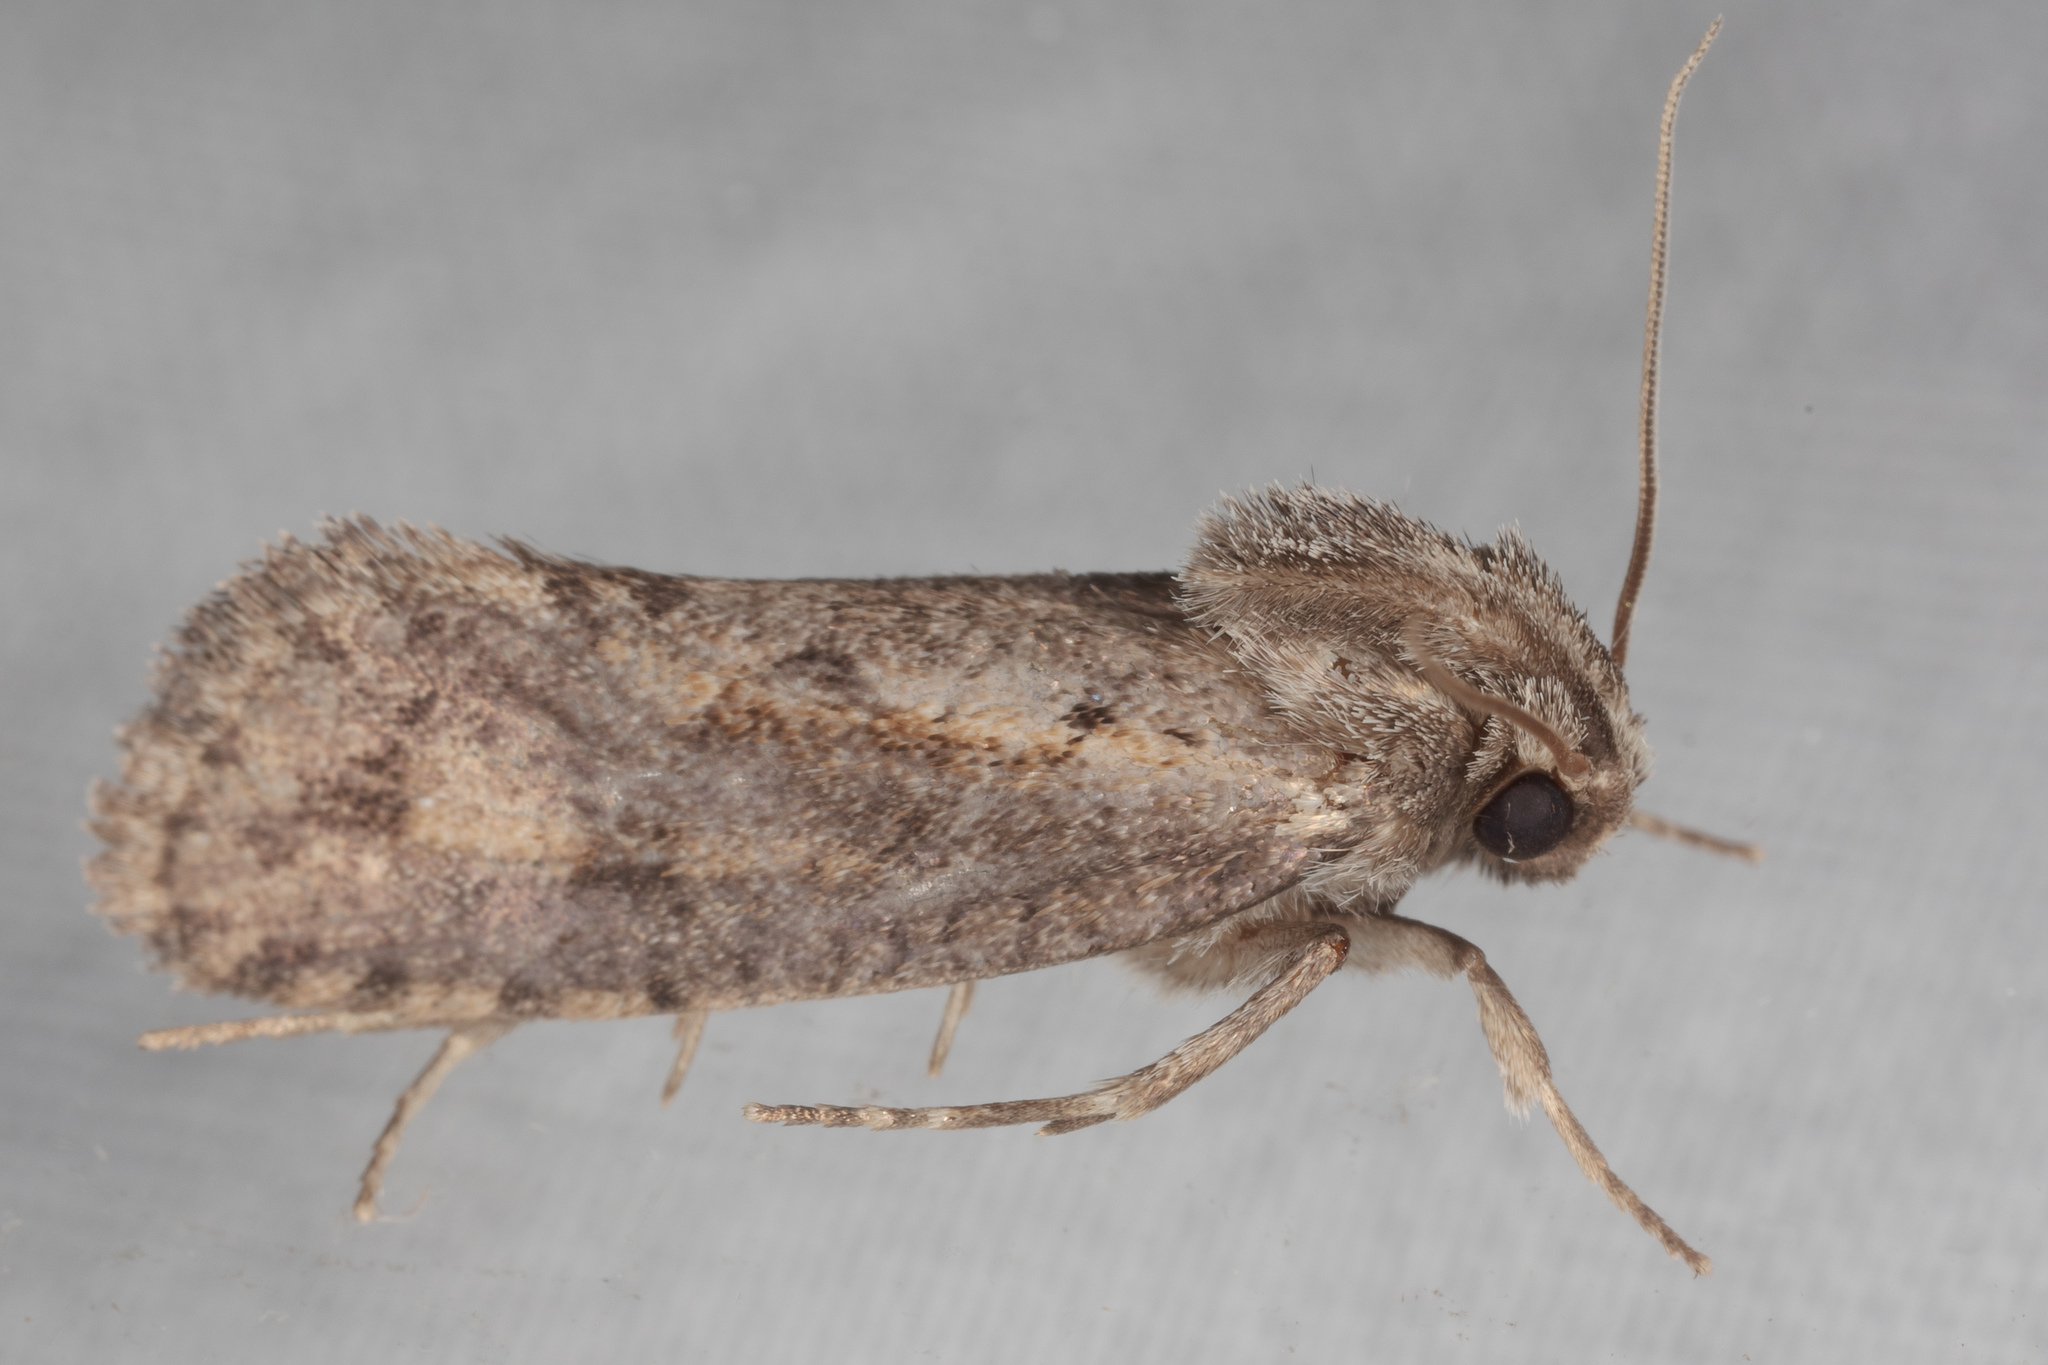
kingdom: Animalia
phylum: Arthropoda
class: Insecta
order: Lepidoptera
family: Tineidae
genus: Acrolophus
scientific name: Acrolophus popeanella
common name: Clemens' grass tubeworm moth
